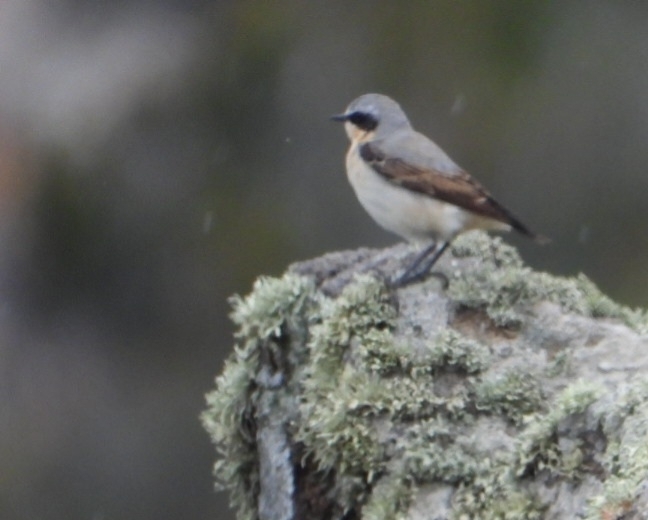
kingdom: Animalia
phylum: Chordata
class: Aves
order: Passeriformes
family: Muscicapidae
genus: Oenanthe
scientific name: Oenanthe oenanthe
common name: Northern wheatear
